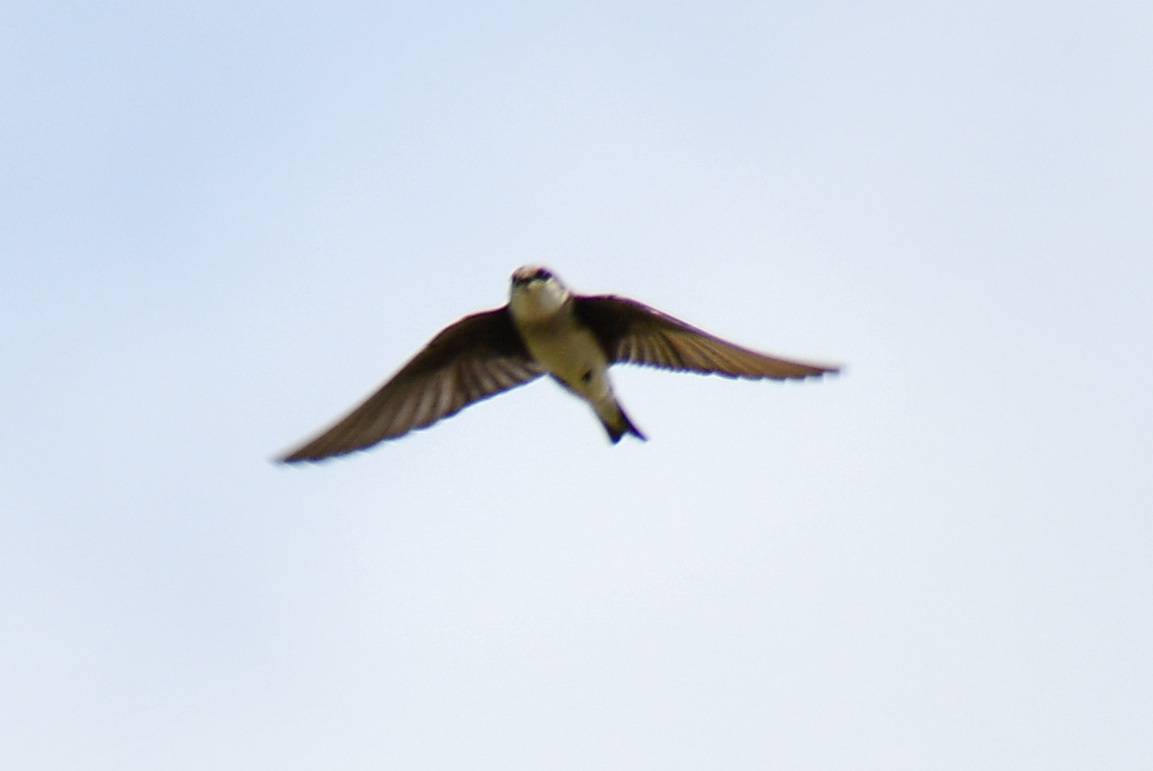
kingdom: Animalia
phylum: Chordata
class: Aves
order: Passeriformes
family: Hirundinidae
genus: Stelgidopteryx
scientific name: Stelgidopteryx serripennis
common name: Northern rough-winged swallow
